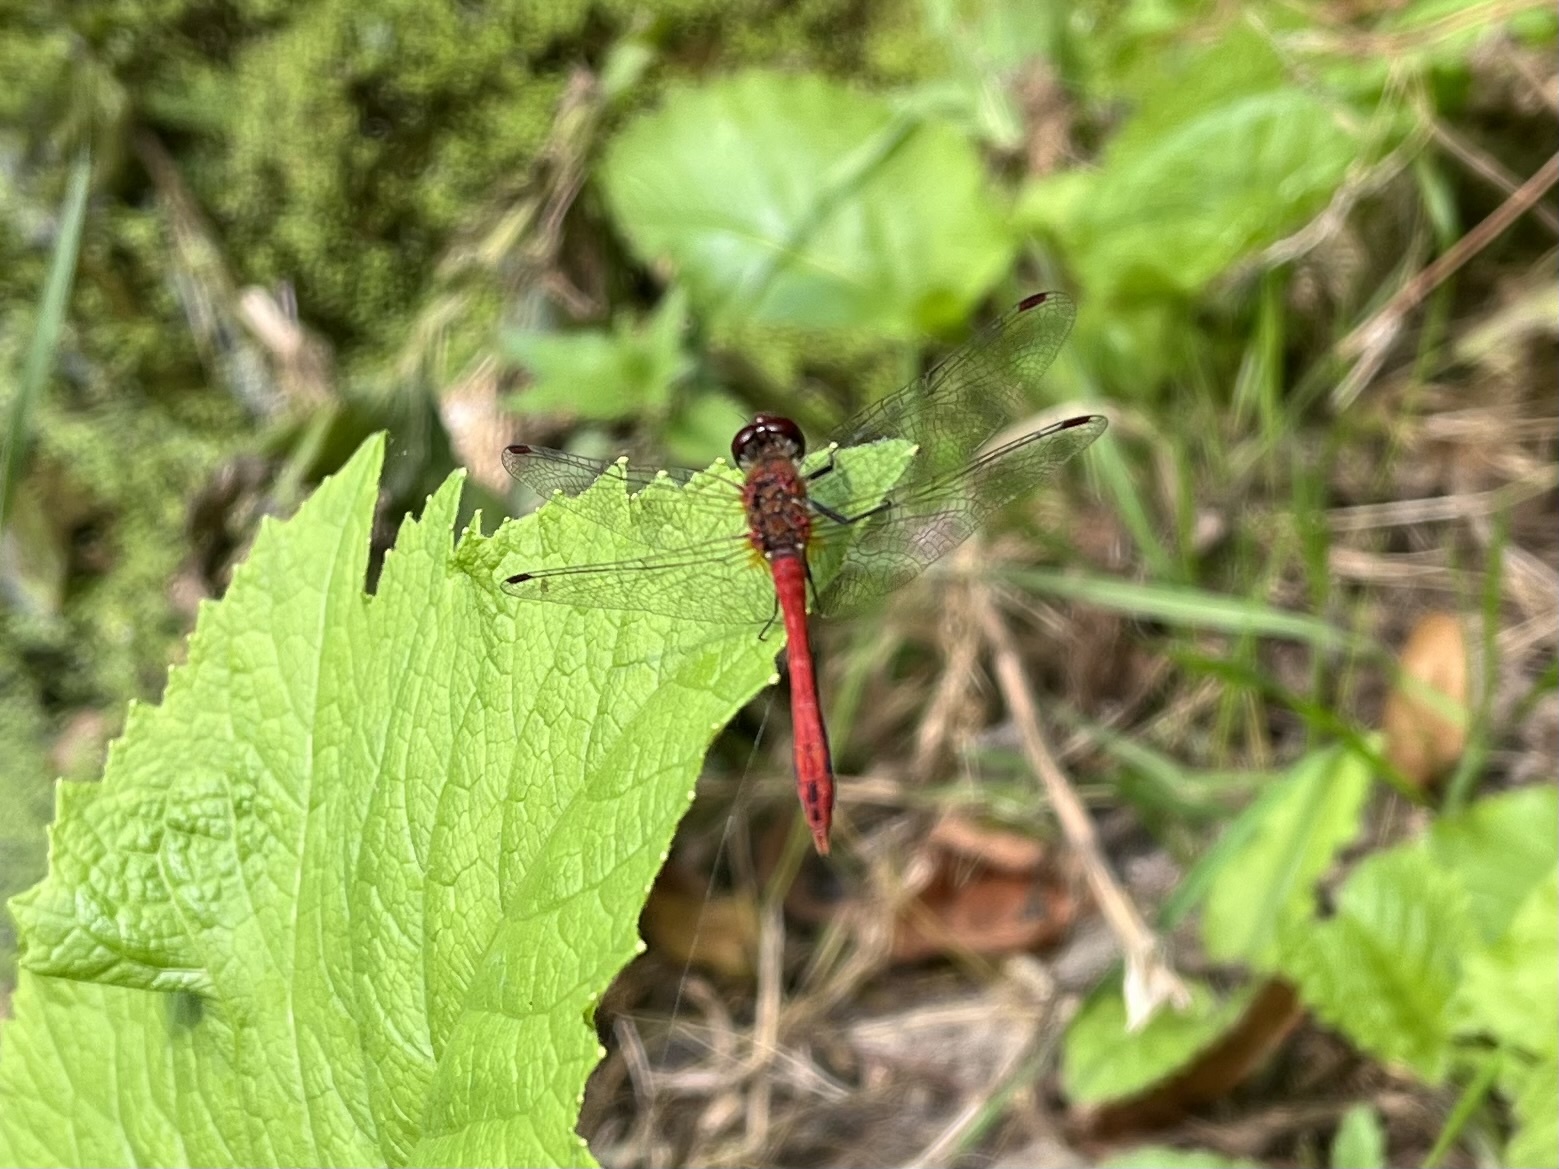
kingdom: Animalia
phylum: Arthropoda
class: Insecta
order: Odonata
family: Libellulidae
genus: Sympetrum
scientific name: Sympetrum sanguineum
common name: Ruddy darter
